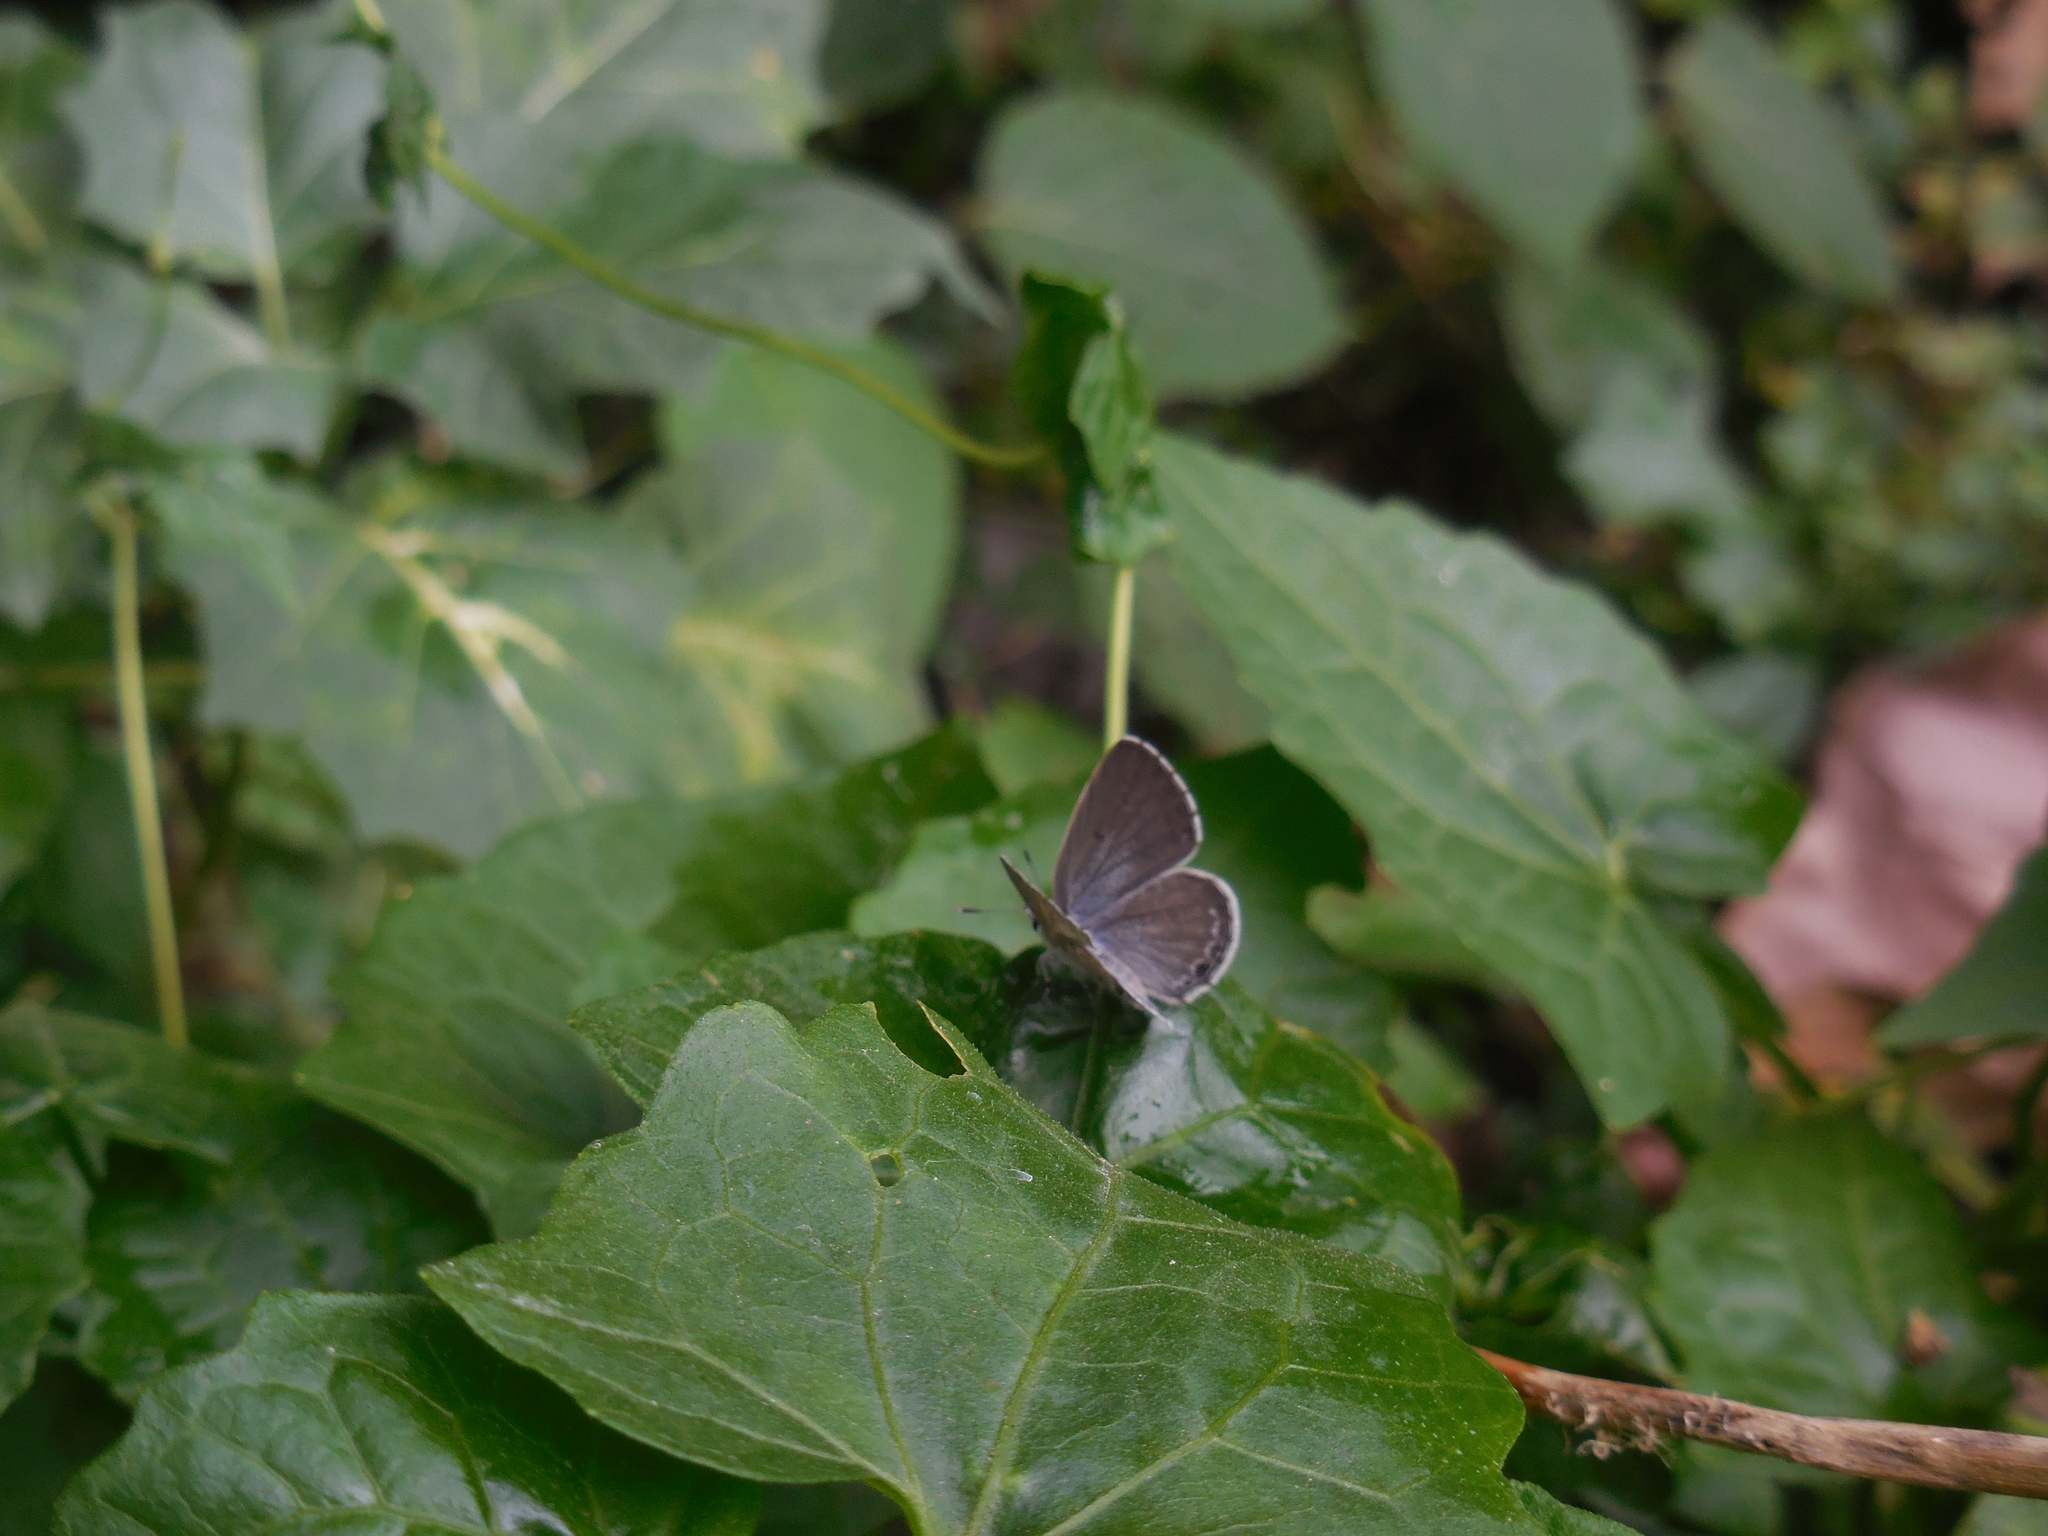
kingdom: Animalia
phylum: Arthropoda
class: Insecta
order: Lepidoptera
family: Lycaenidae
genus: Chilades
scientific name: Chilades laius
